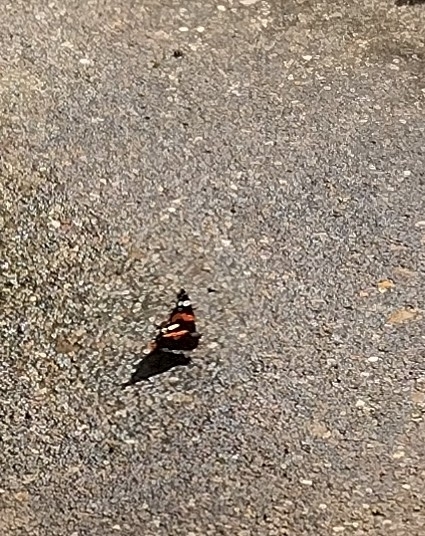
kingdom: Animalia
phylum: Arthropoda
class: Insecta
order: Lepidoptera
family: Nymphalidae
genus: Vanessa
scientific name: Vanessa atalanta
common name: Red admiral
